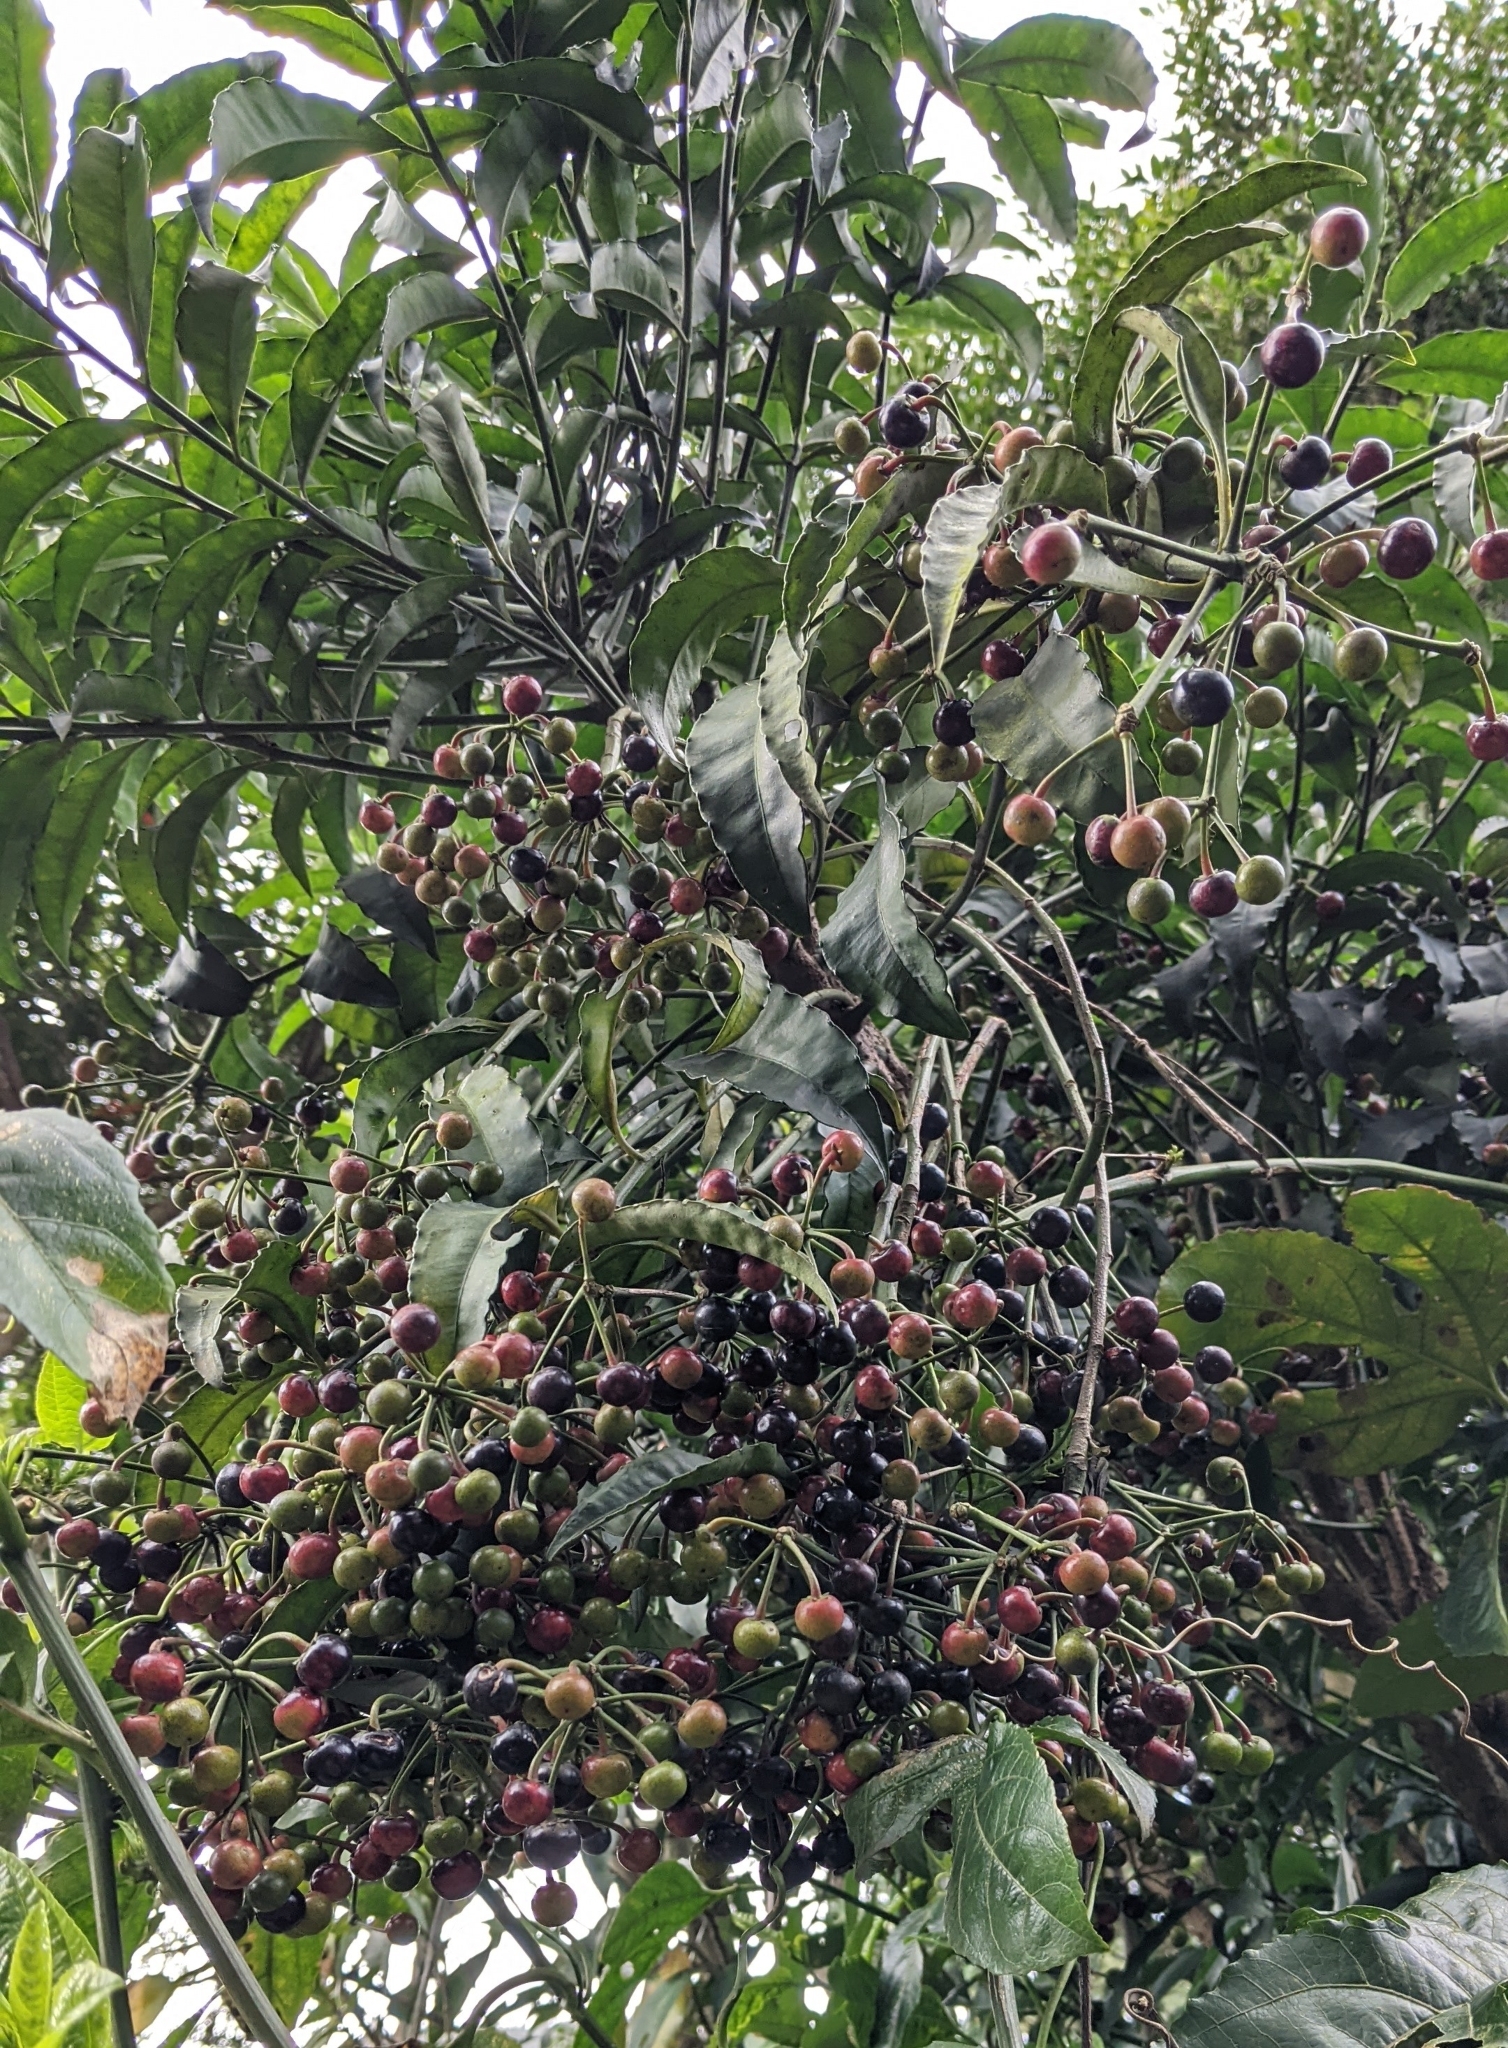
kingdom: Plantae
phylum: Tracheophyta
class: Magnoliopsida
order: Ericales
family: Primulaceae
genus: Ardisia
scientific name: Ardisia polysticta
